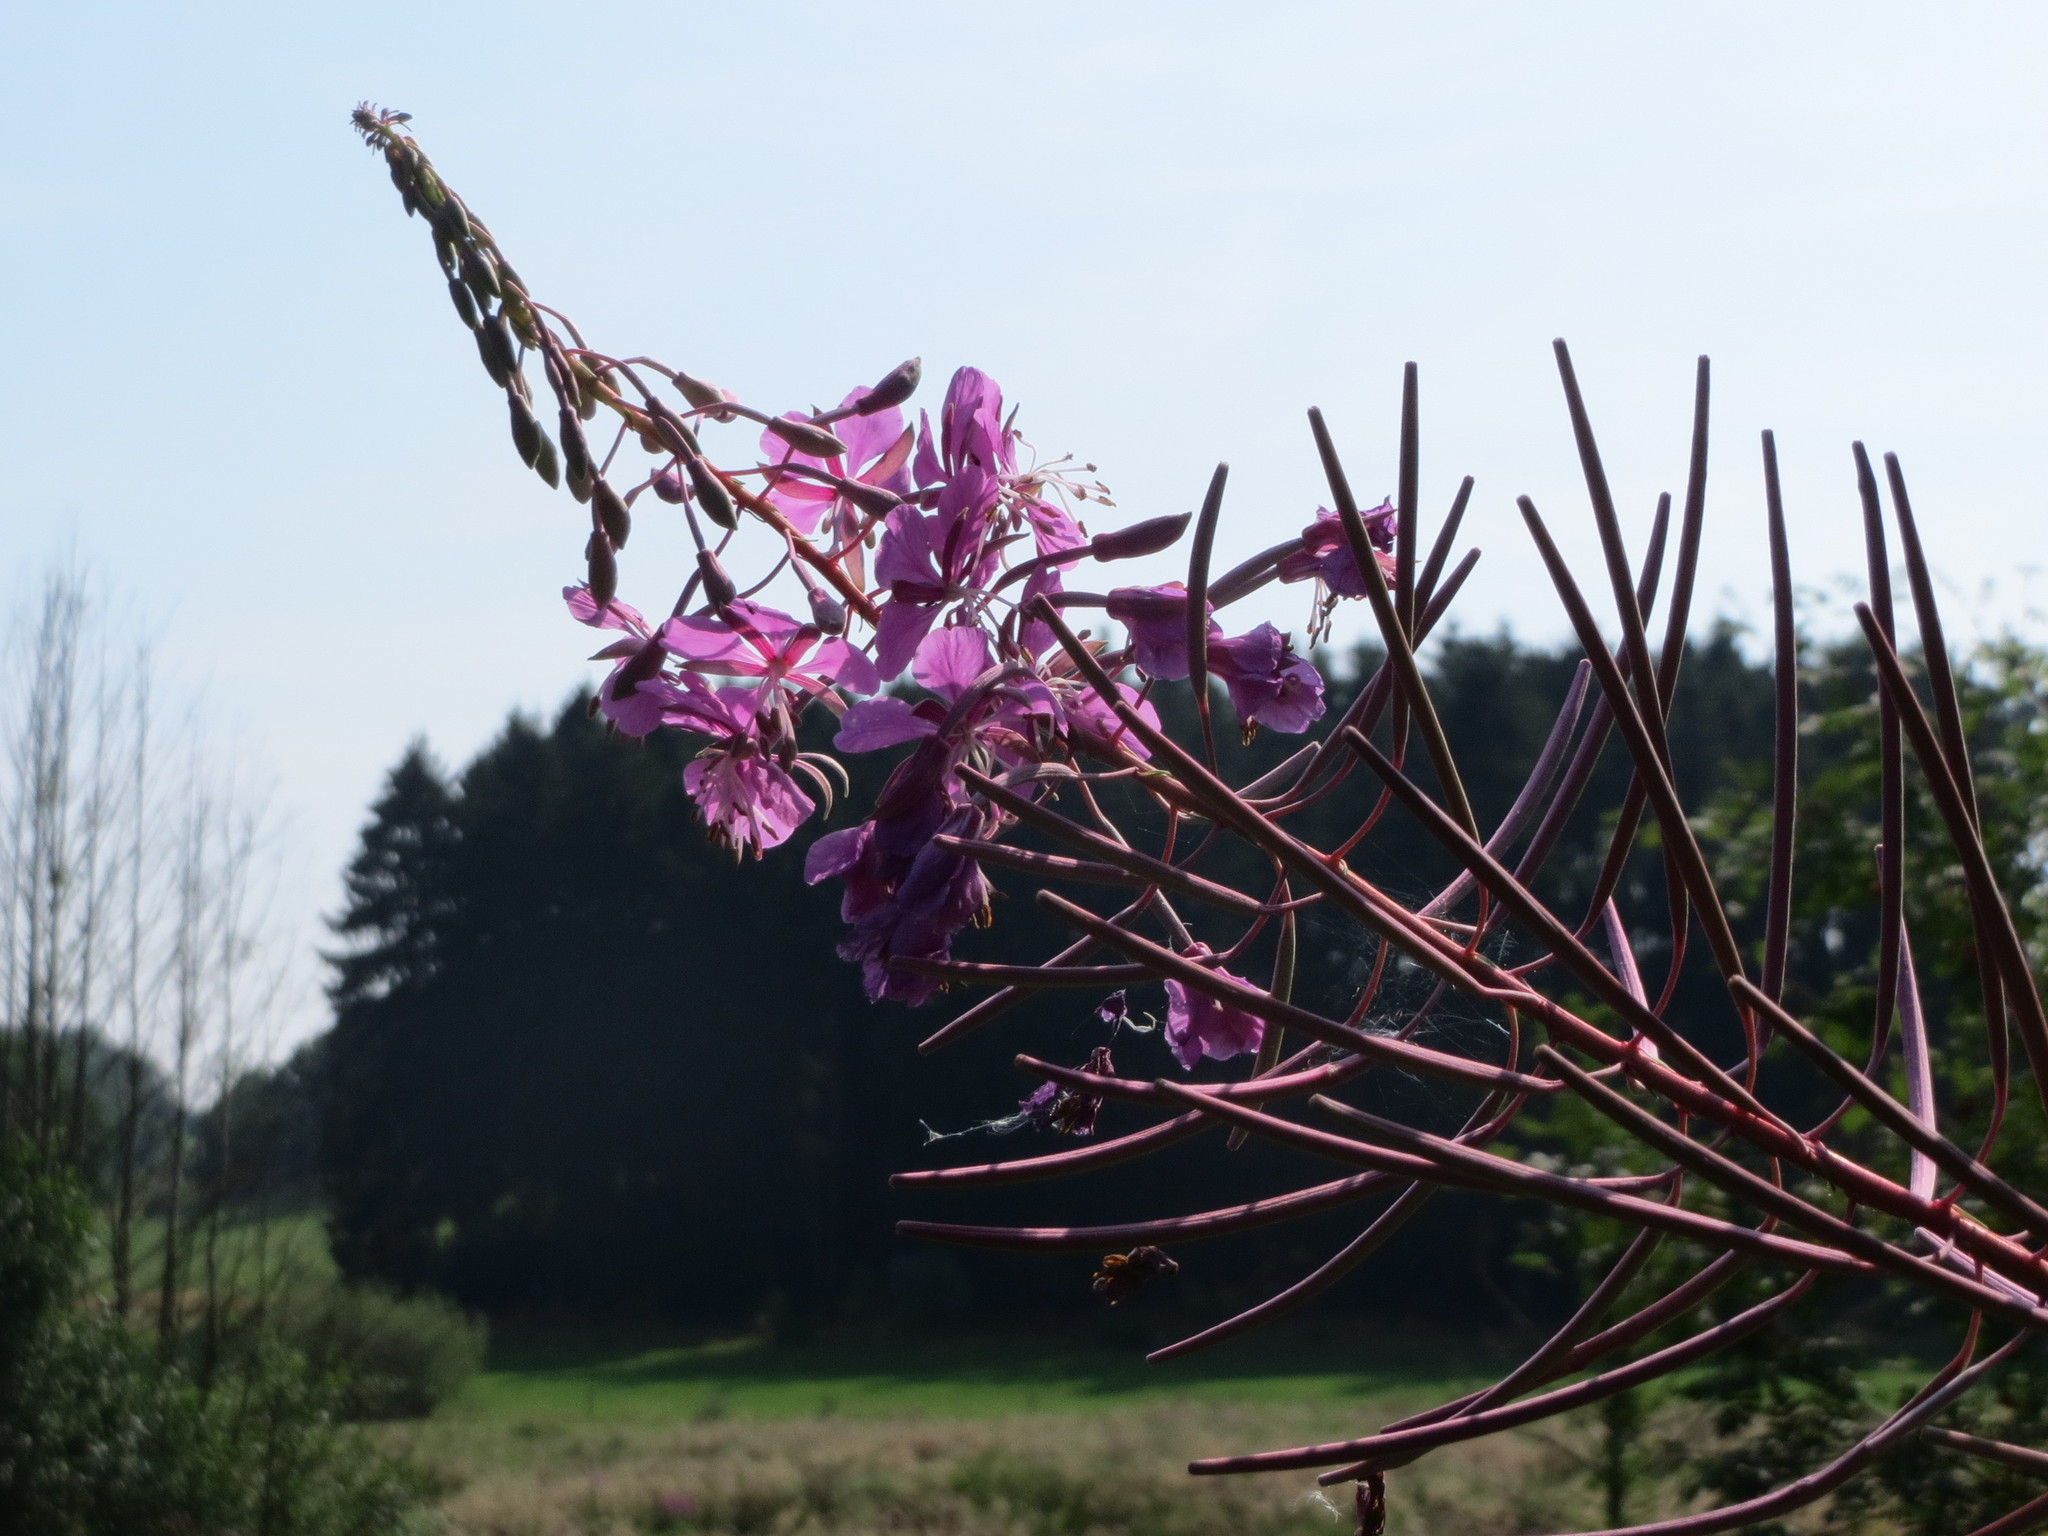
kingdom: Plantae
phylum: Tracheophyta
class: Magnoliopsida
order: Myrtales
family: Onagraceae
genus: Chamaenerion
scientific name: Chamaenerion angustifolium
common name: Fireweed
